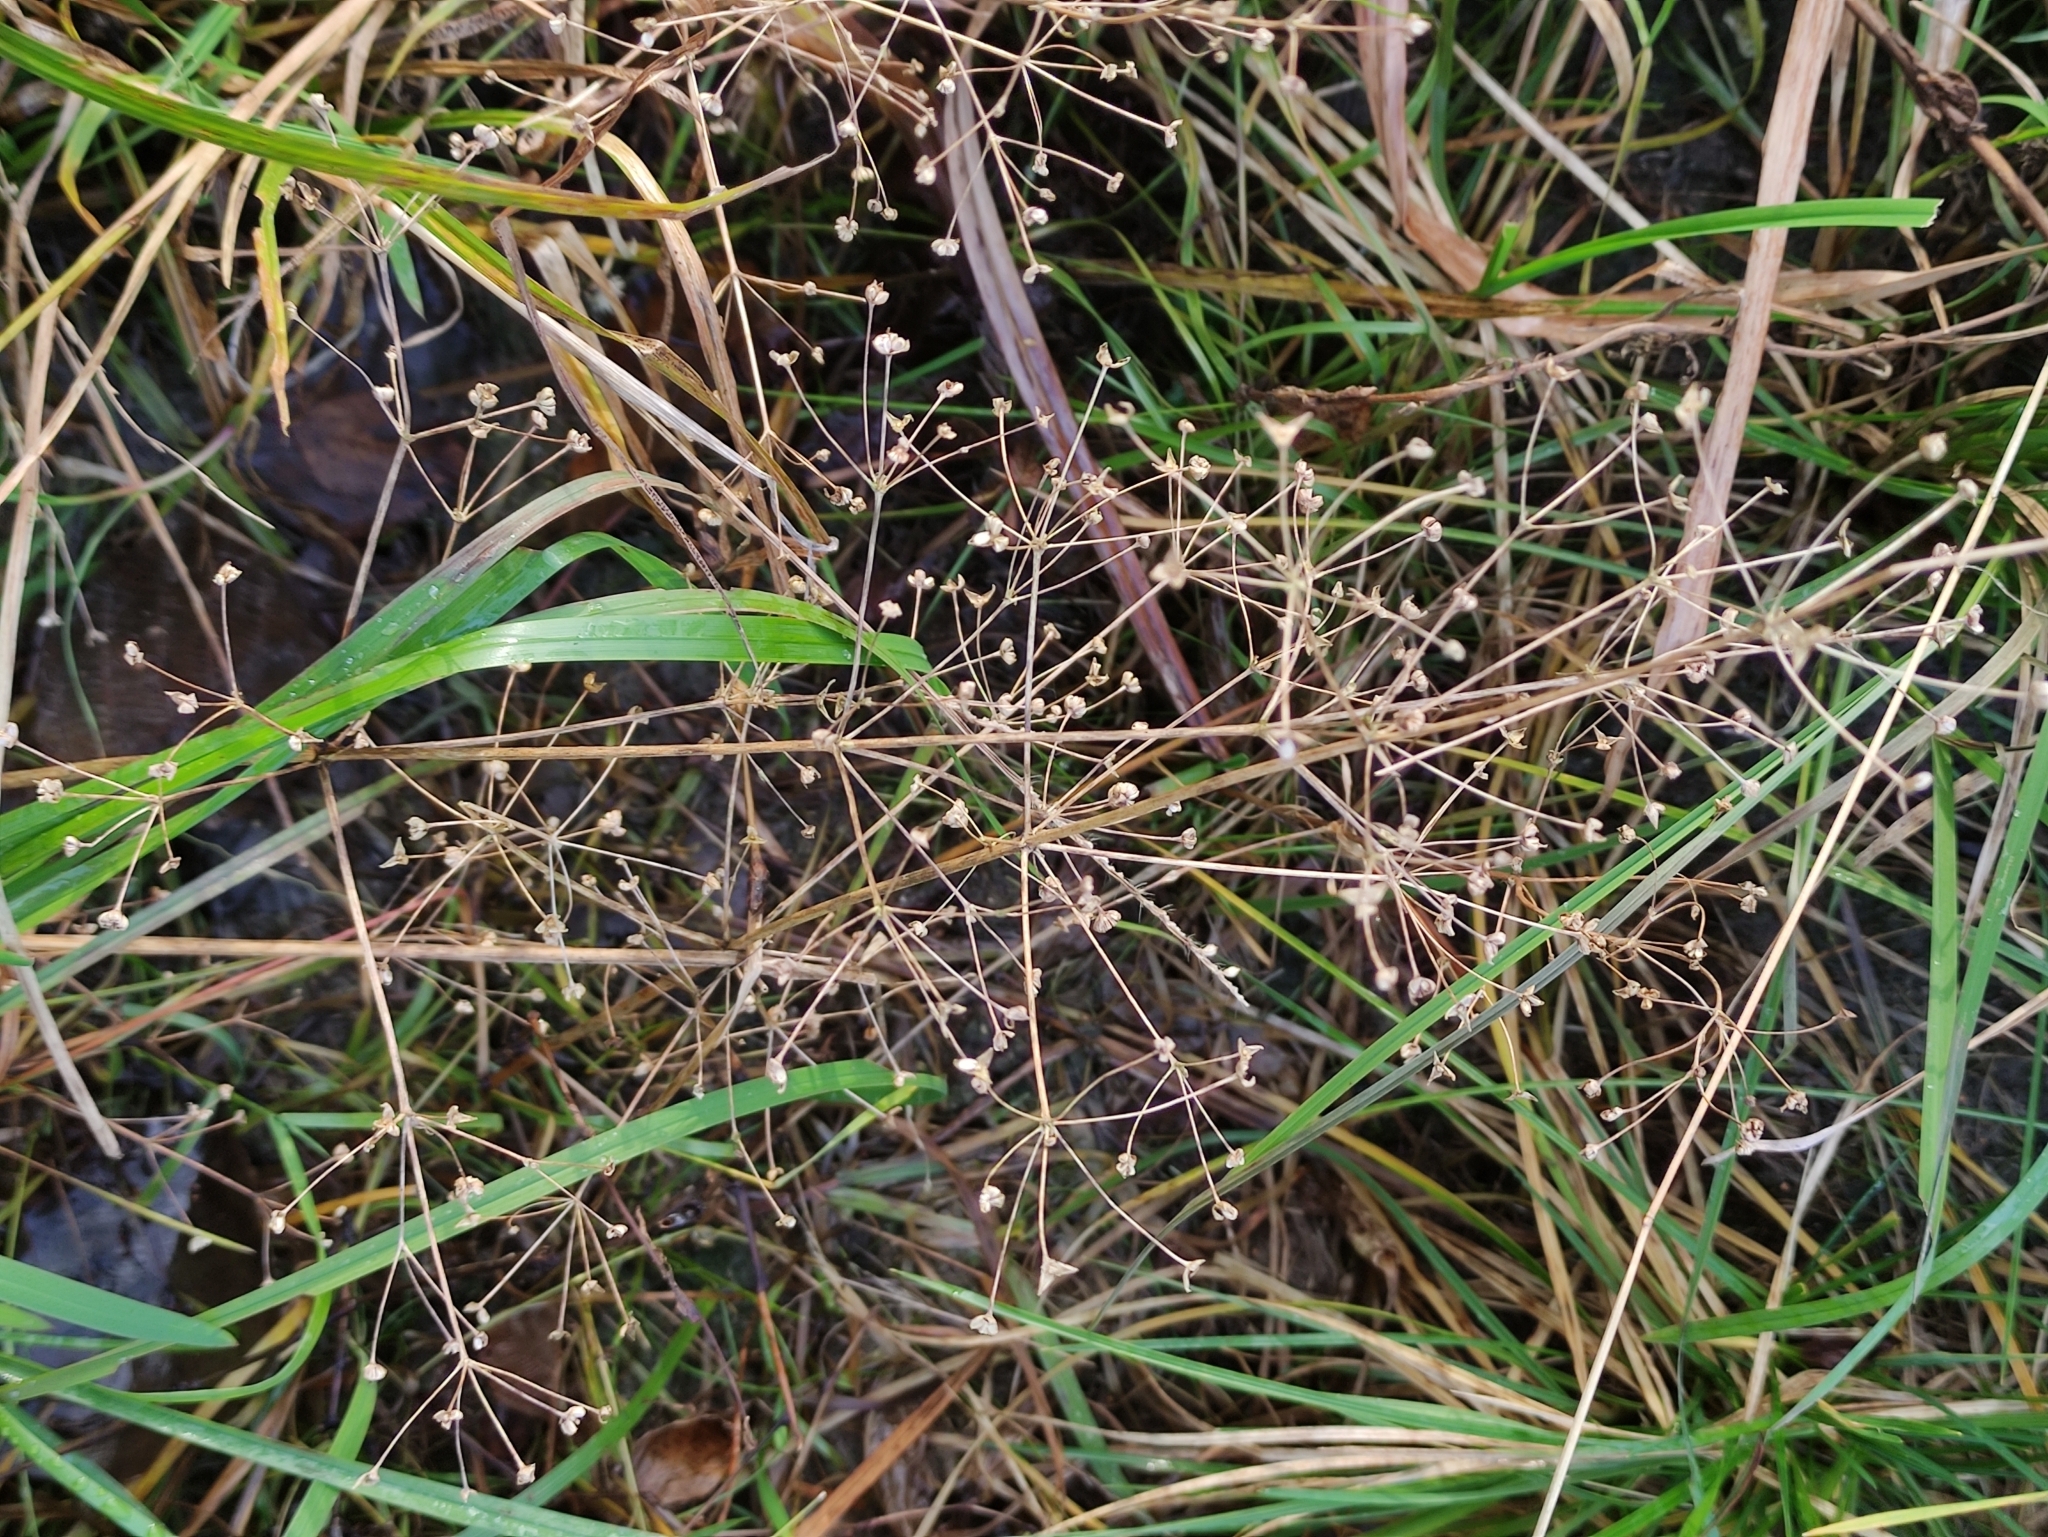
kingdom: Plantae
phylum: Tracheophyta
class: Liliopsida
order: Alismatales
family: Alismataceae
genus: Alisma
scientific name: Alisma plantago-aquatica
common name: Water-plantain
